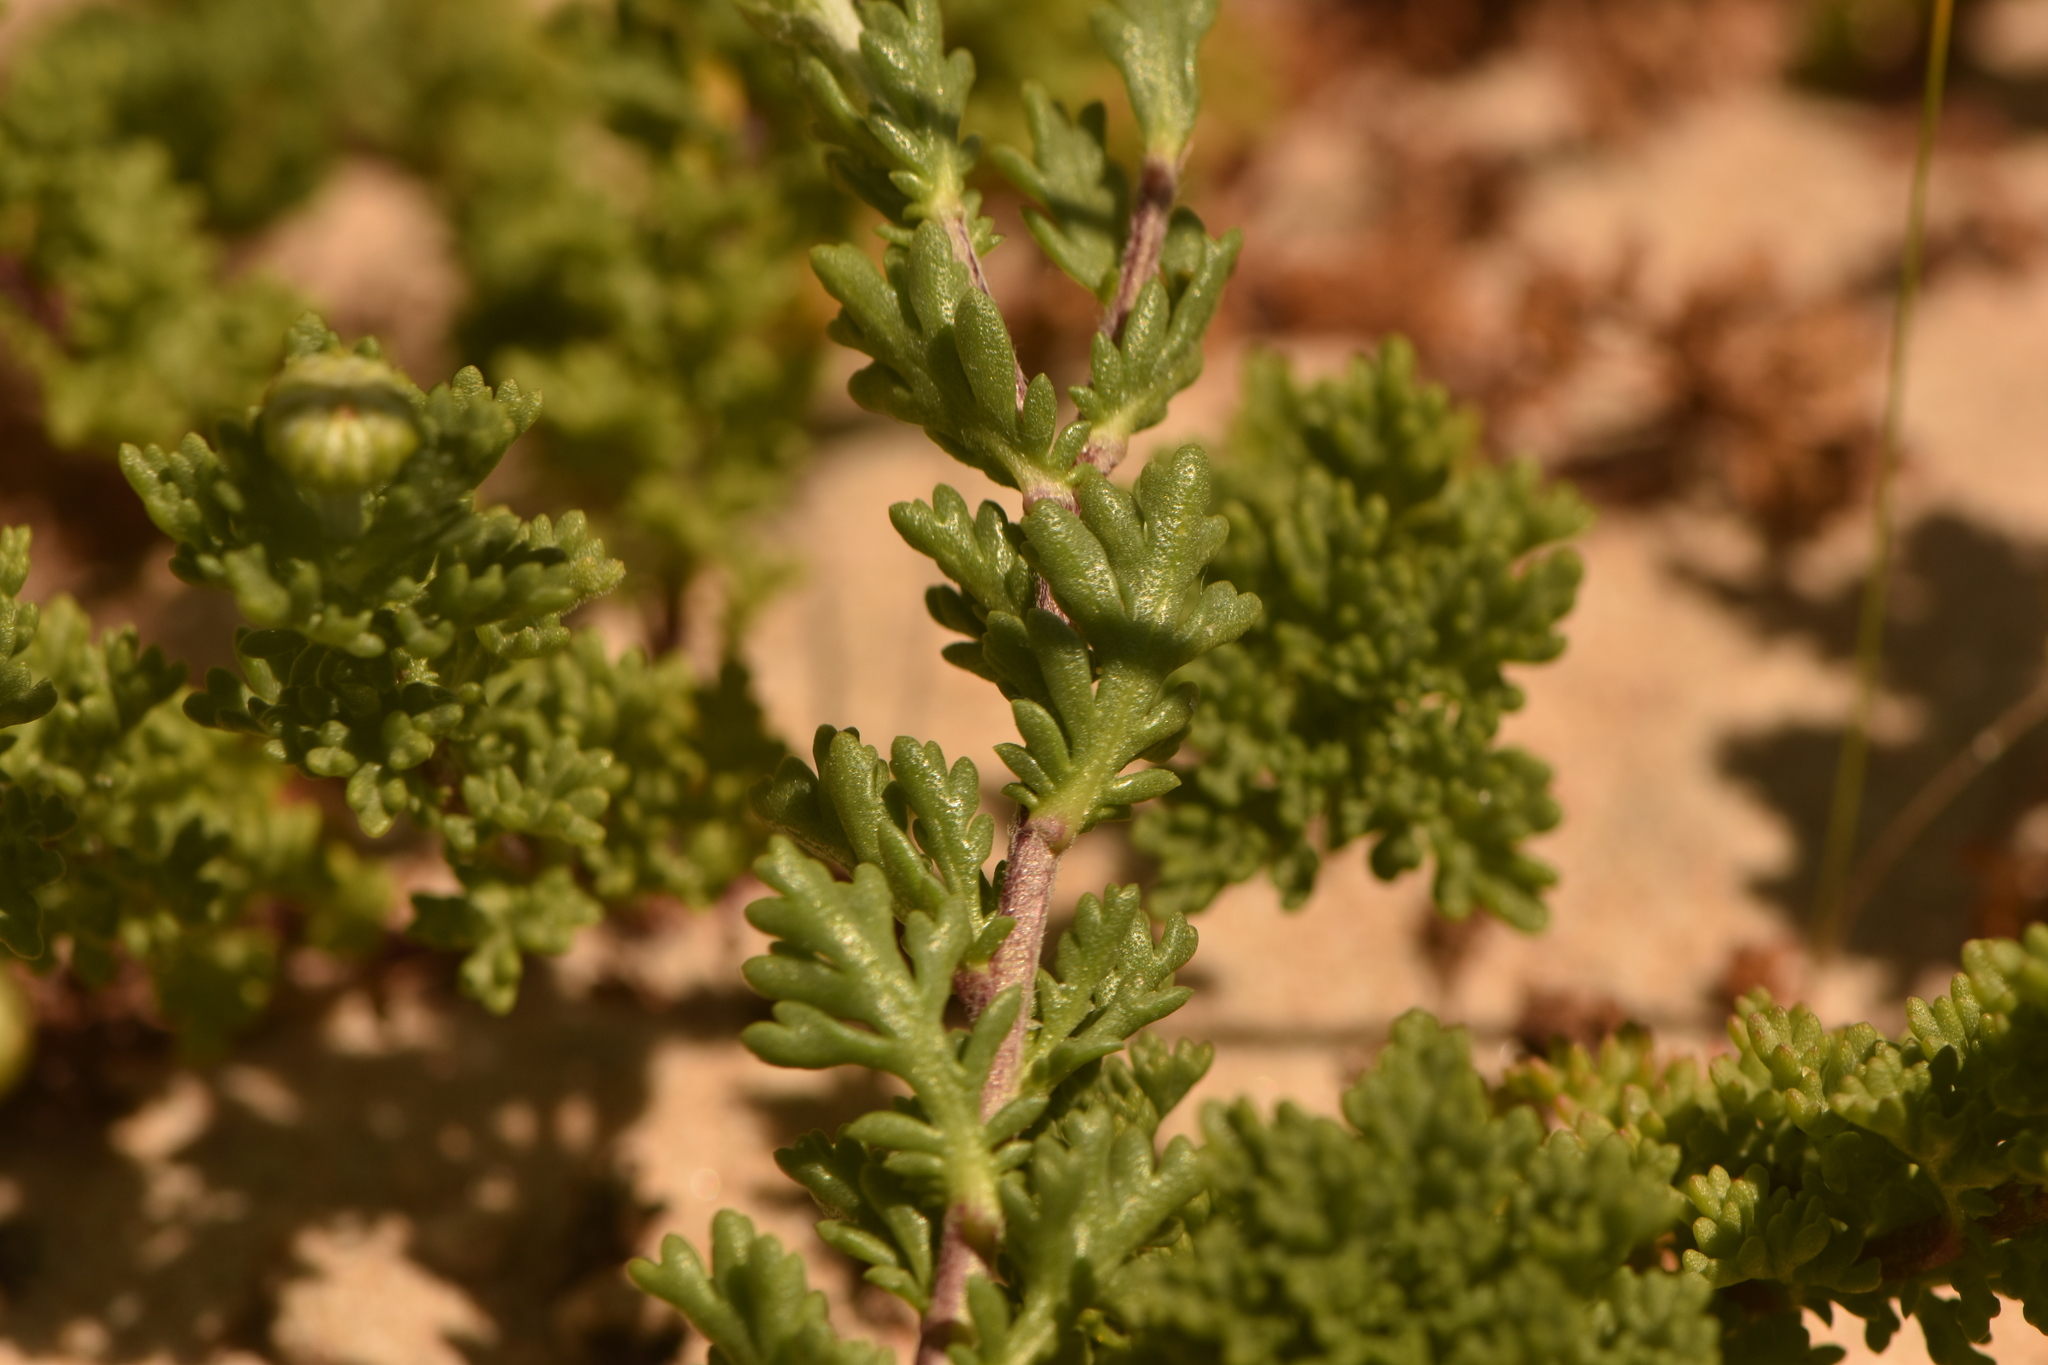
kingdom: Plantae
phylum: Tracheophyta
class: Magnoliopsida
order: Asterales
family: Asteraceae
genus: Anthemis
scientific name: Anthemis maritima
